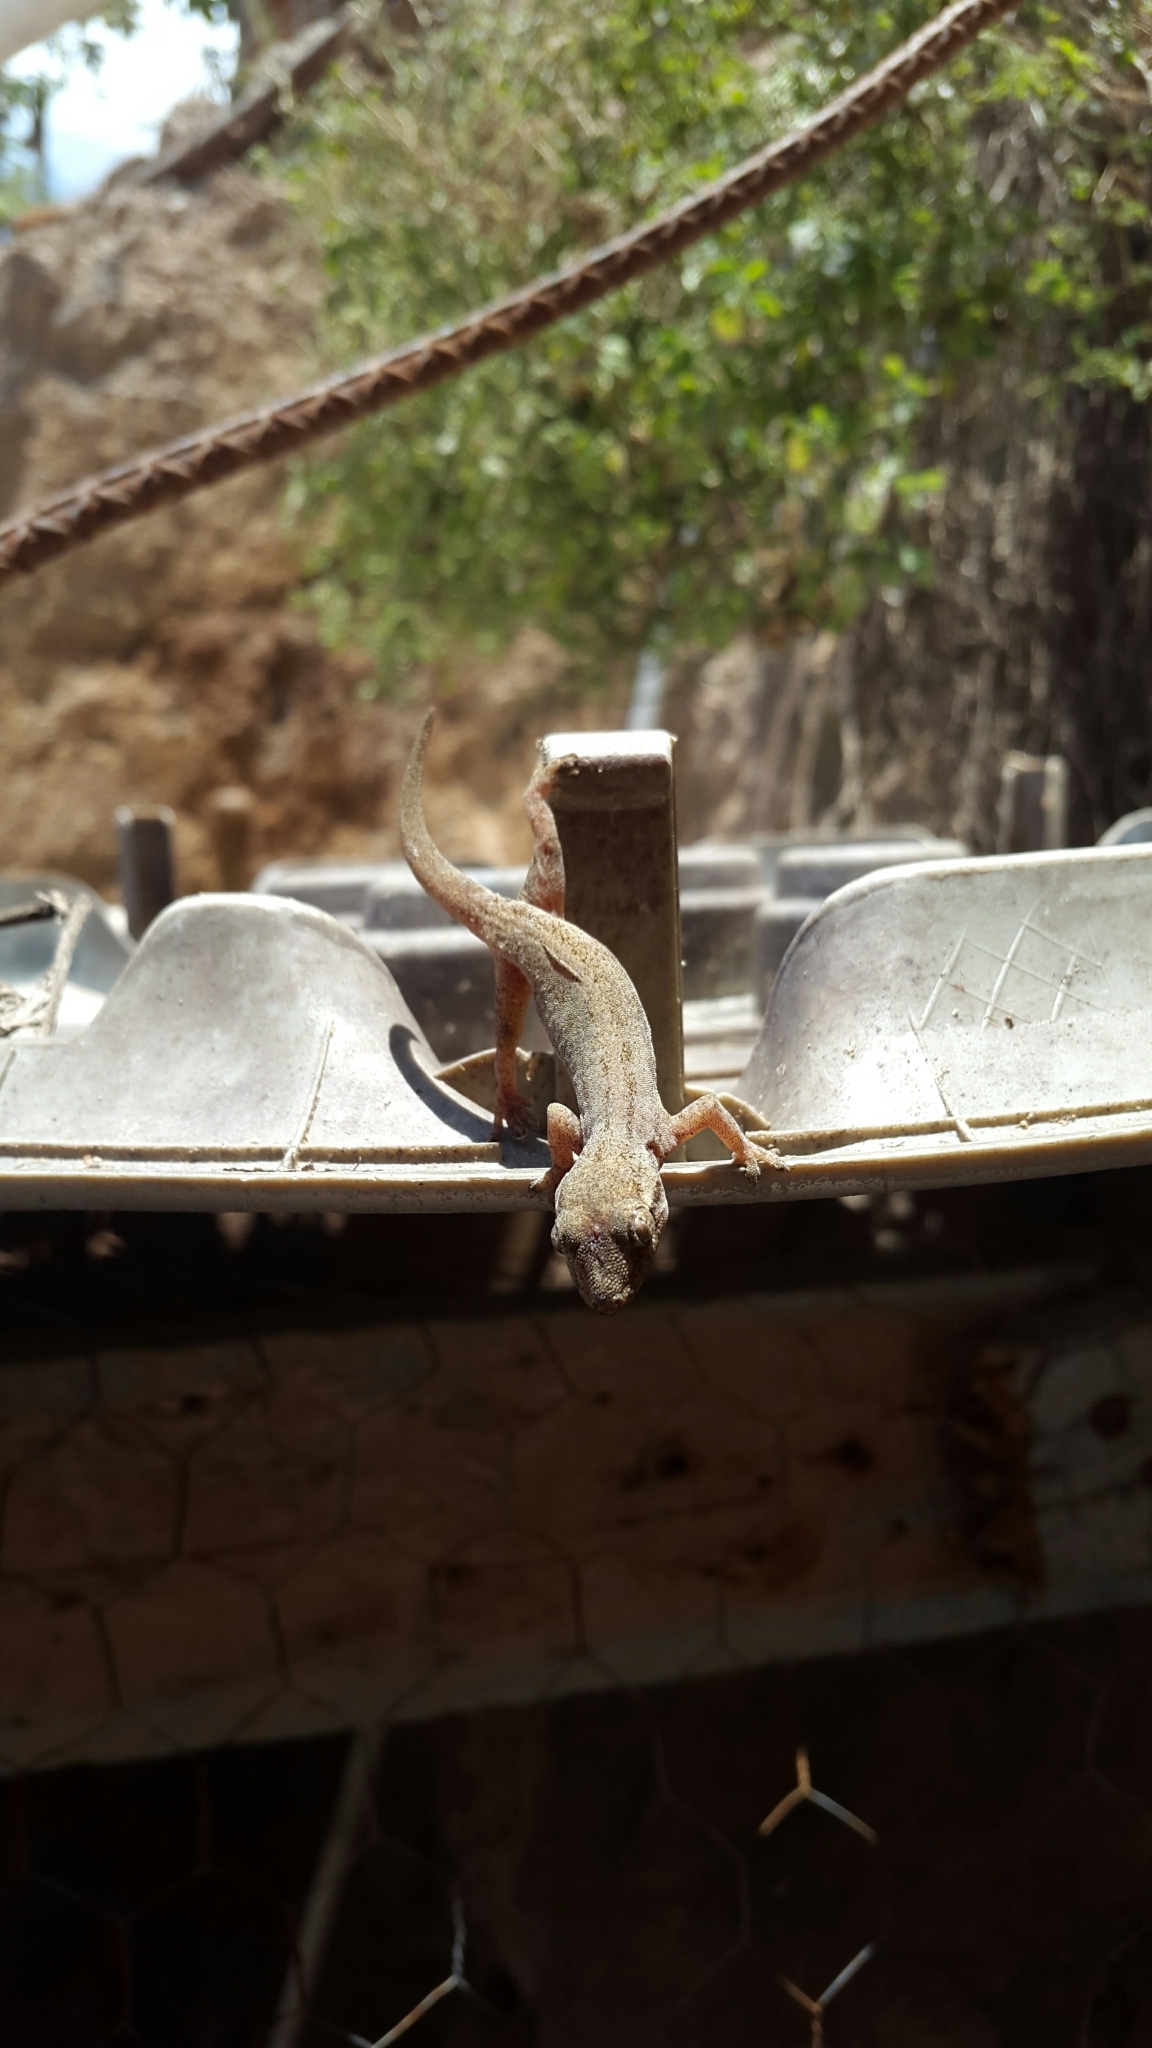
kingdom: Animalia
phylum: Chordata
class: Squamata
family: Gekkonidae
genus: Hemidactylus
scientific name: Hemidactylus frenatus
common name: Common house gecko
